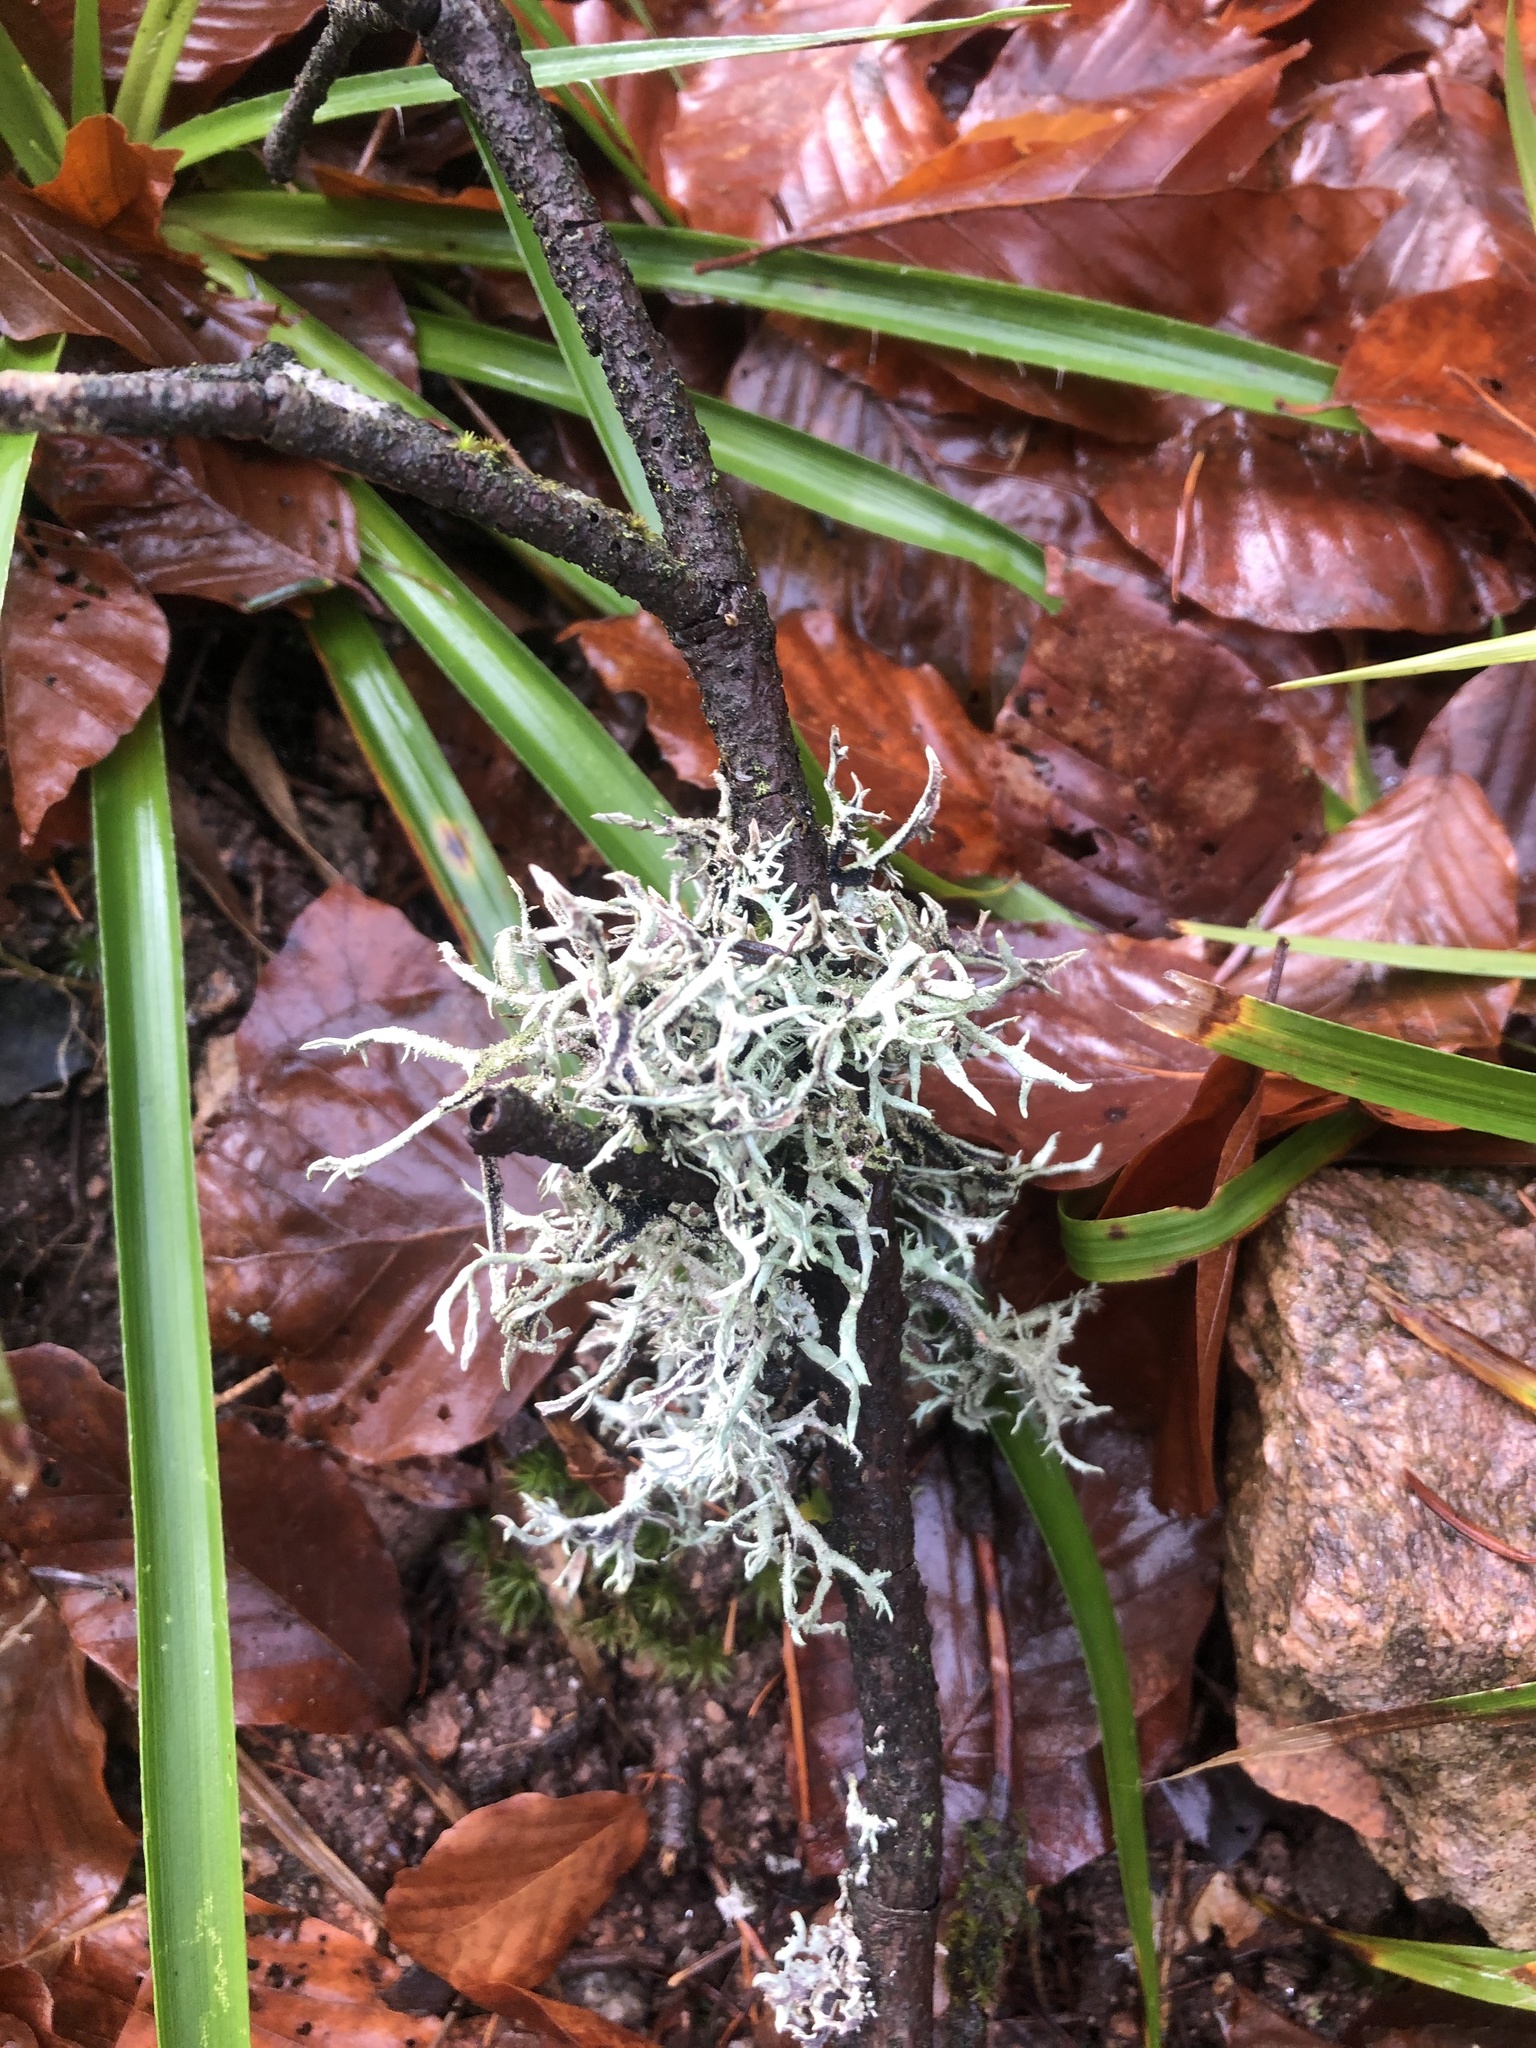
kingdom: Fungi
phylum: Ascomycota
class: Lecanoromycetes
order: Lecanorales
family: Parmeliaceae
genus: Pseudevernia
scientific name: Pseudevernia furfuracea
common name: Tree moss
